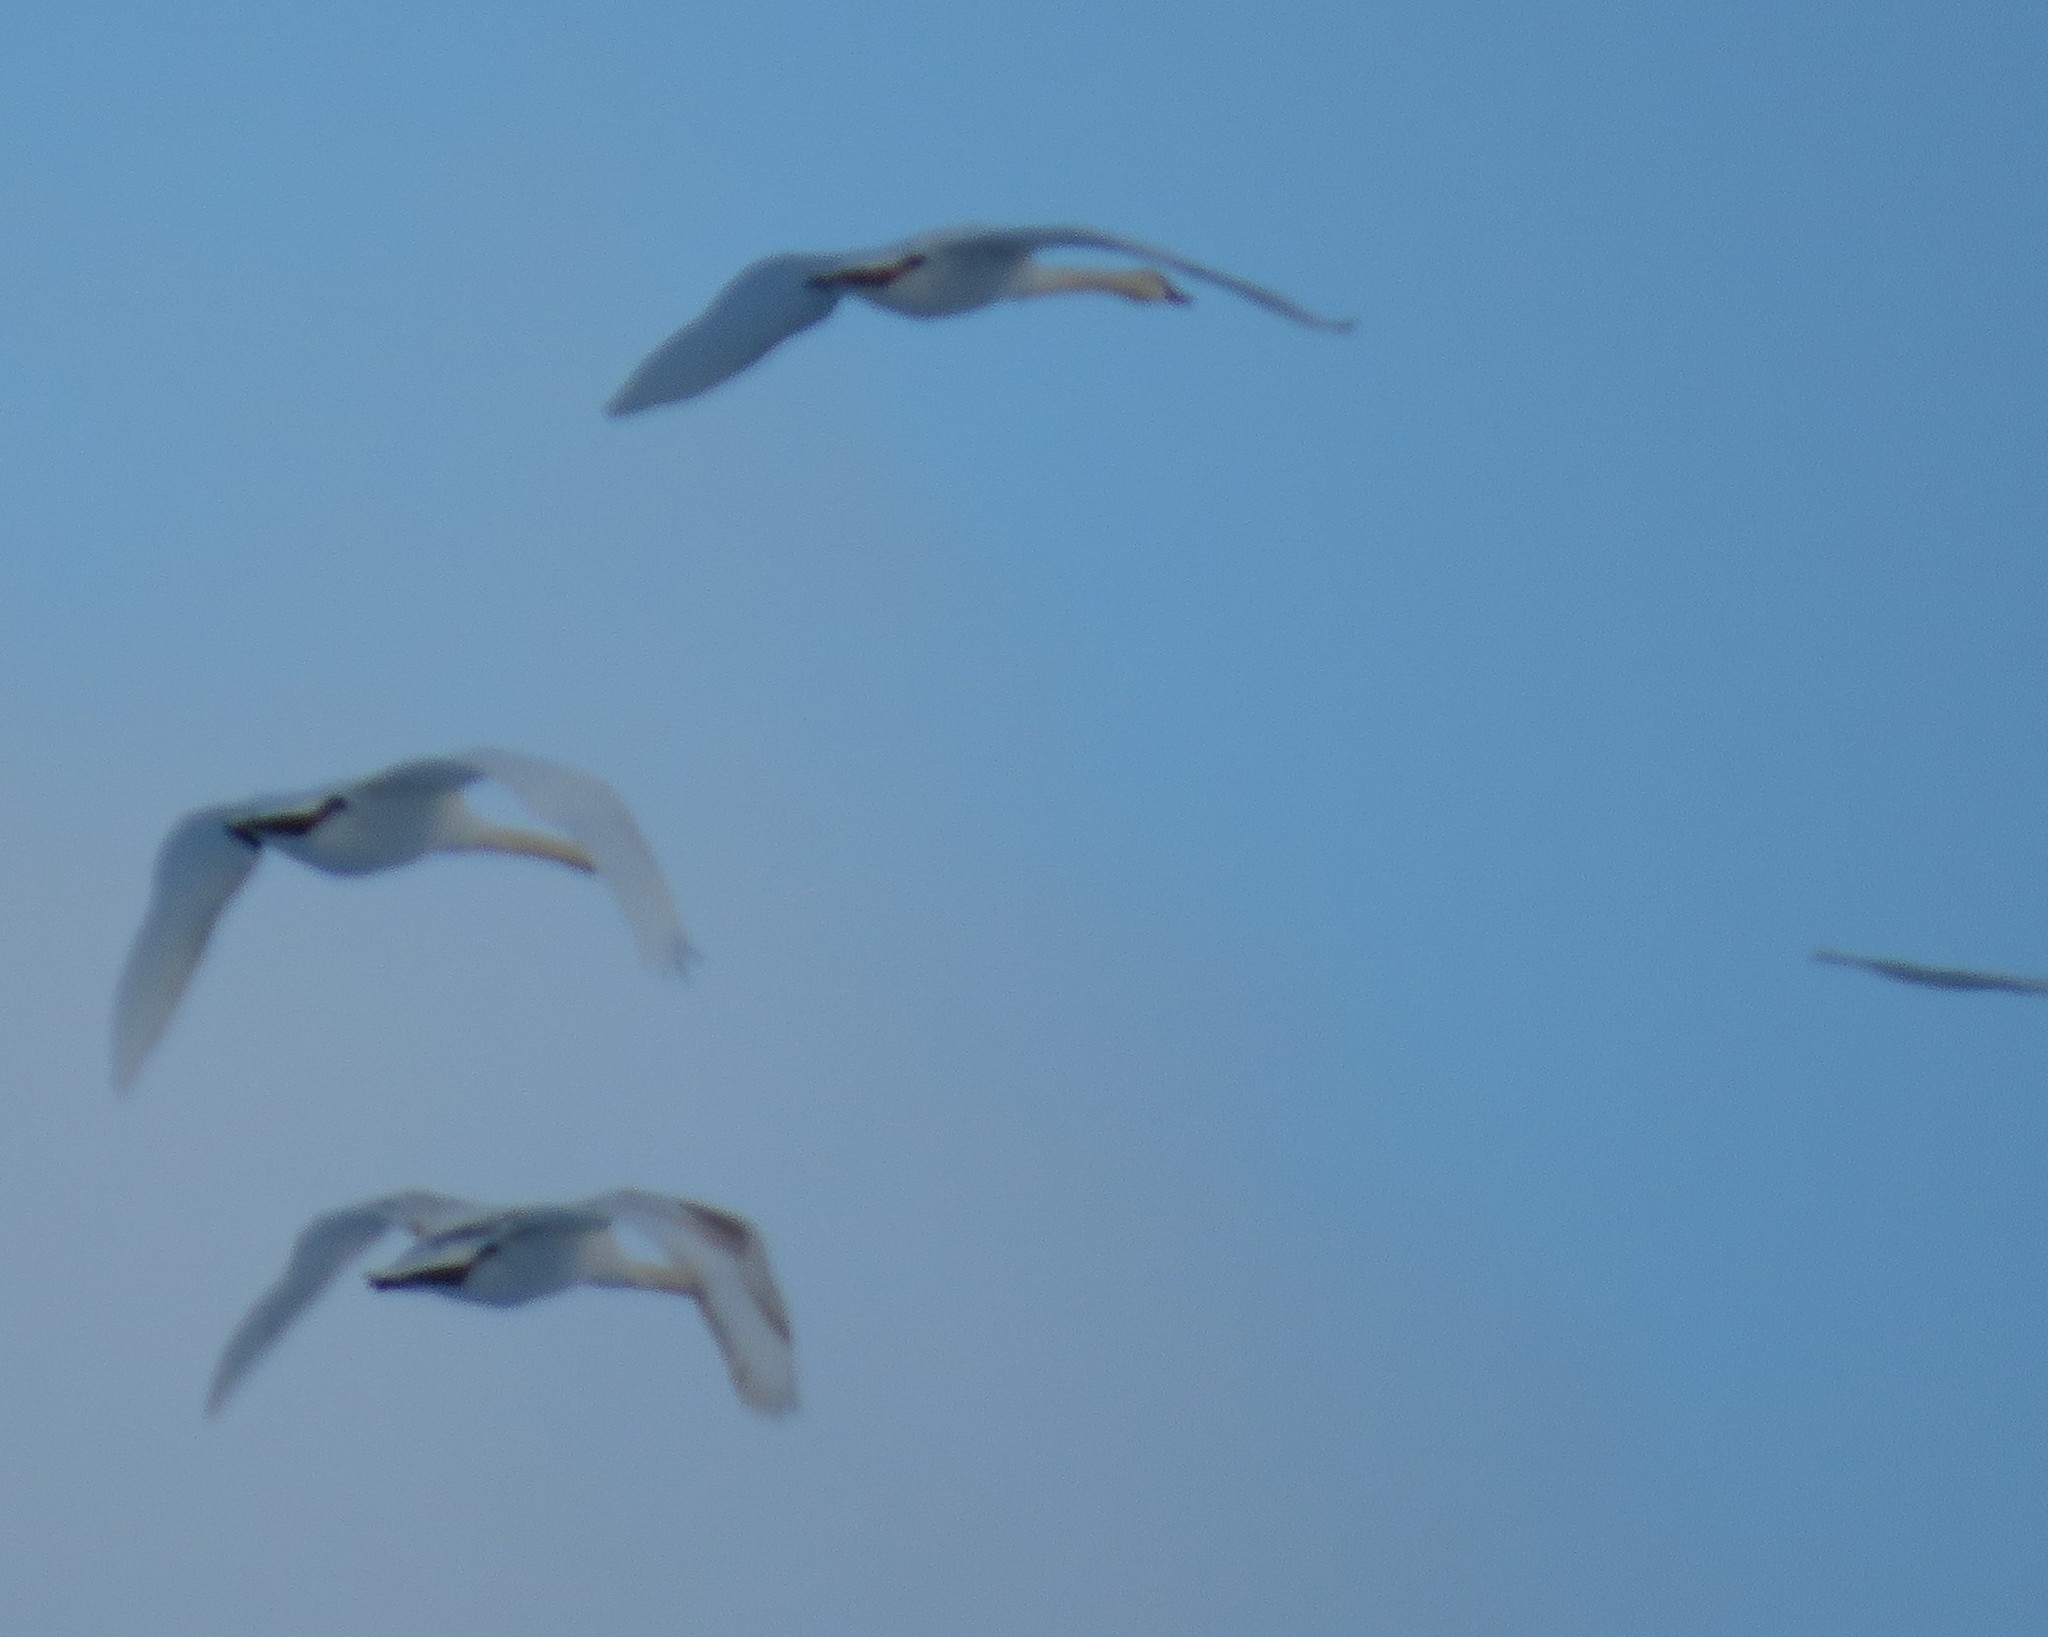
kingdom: Animalia
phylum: Chordata
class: Aves
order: Anseriformes
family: Anatidae
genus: Cygnus
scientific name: Cygnus olor
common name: Mute swan
